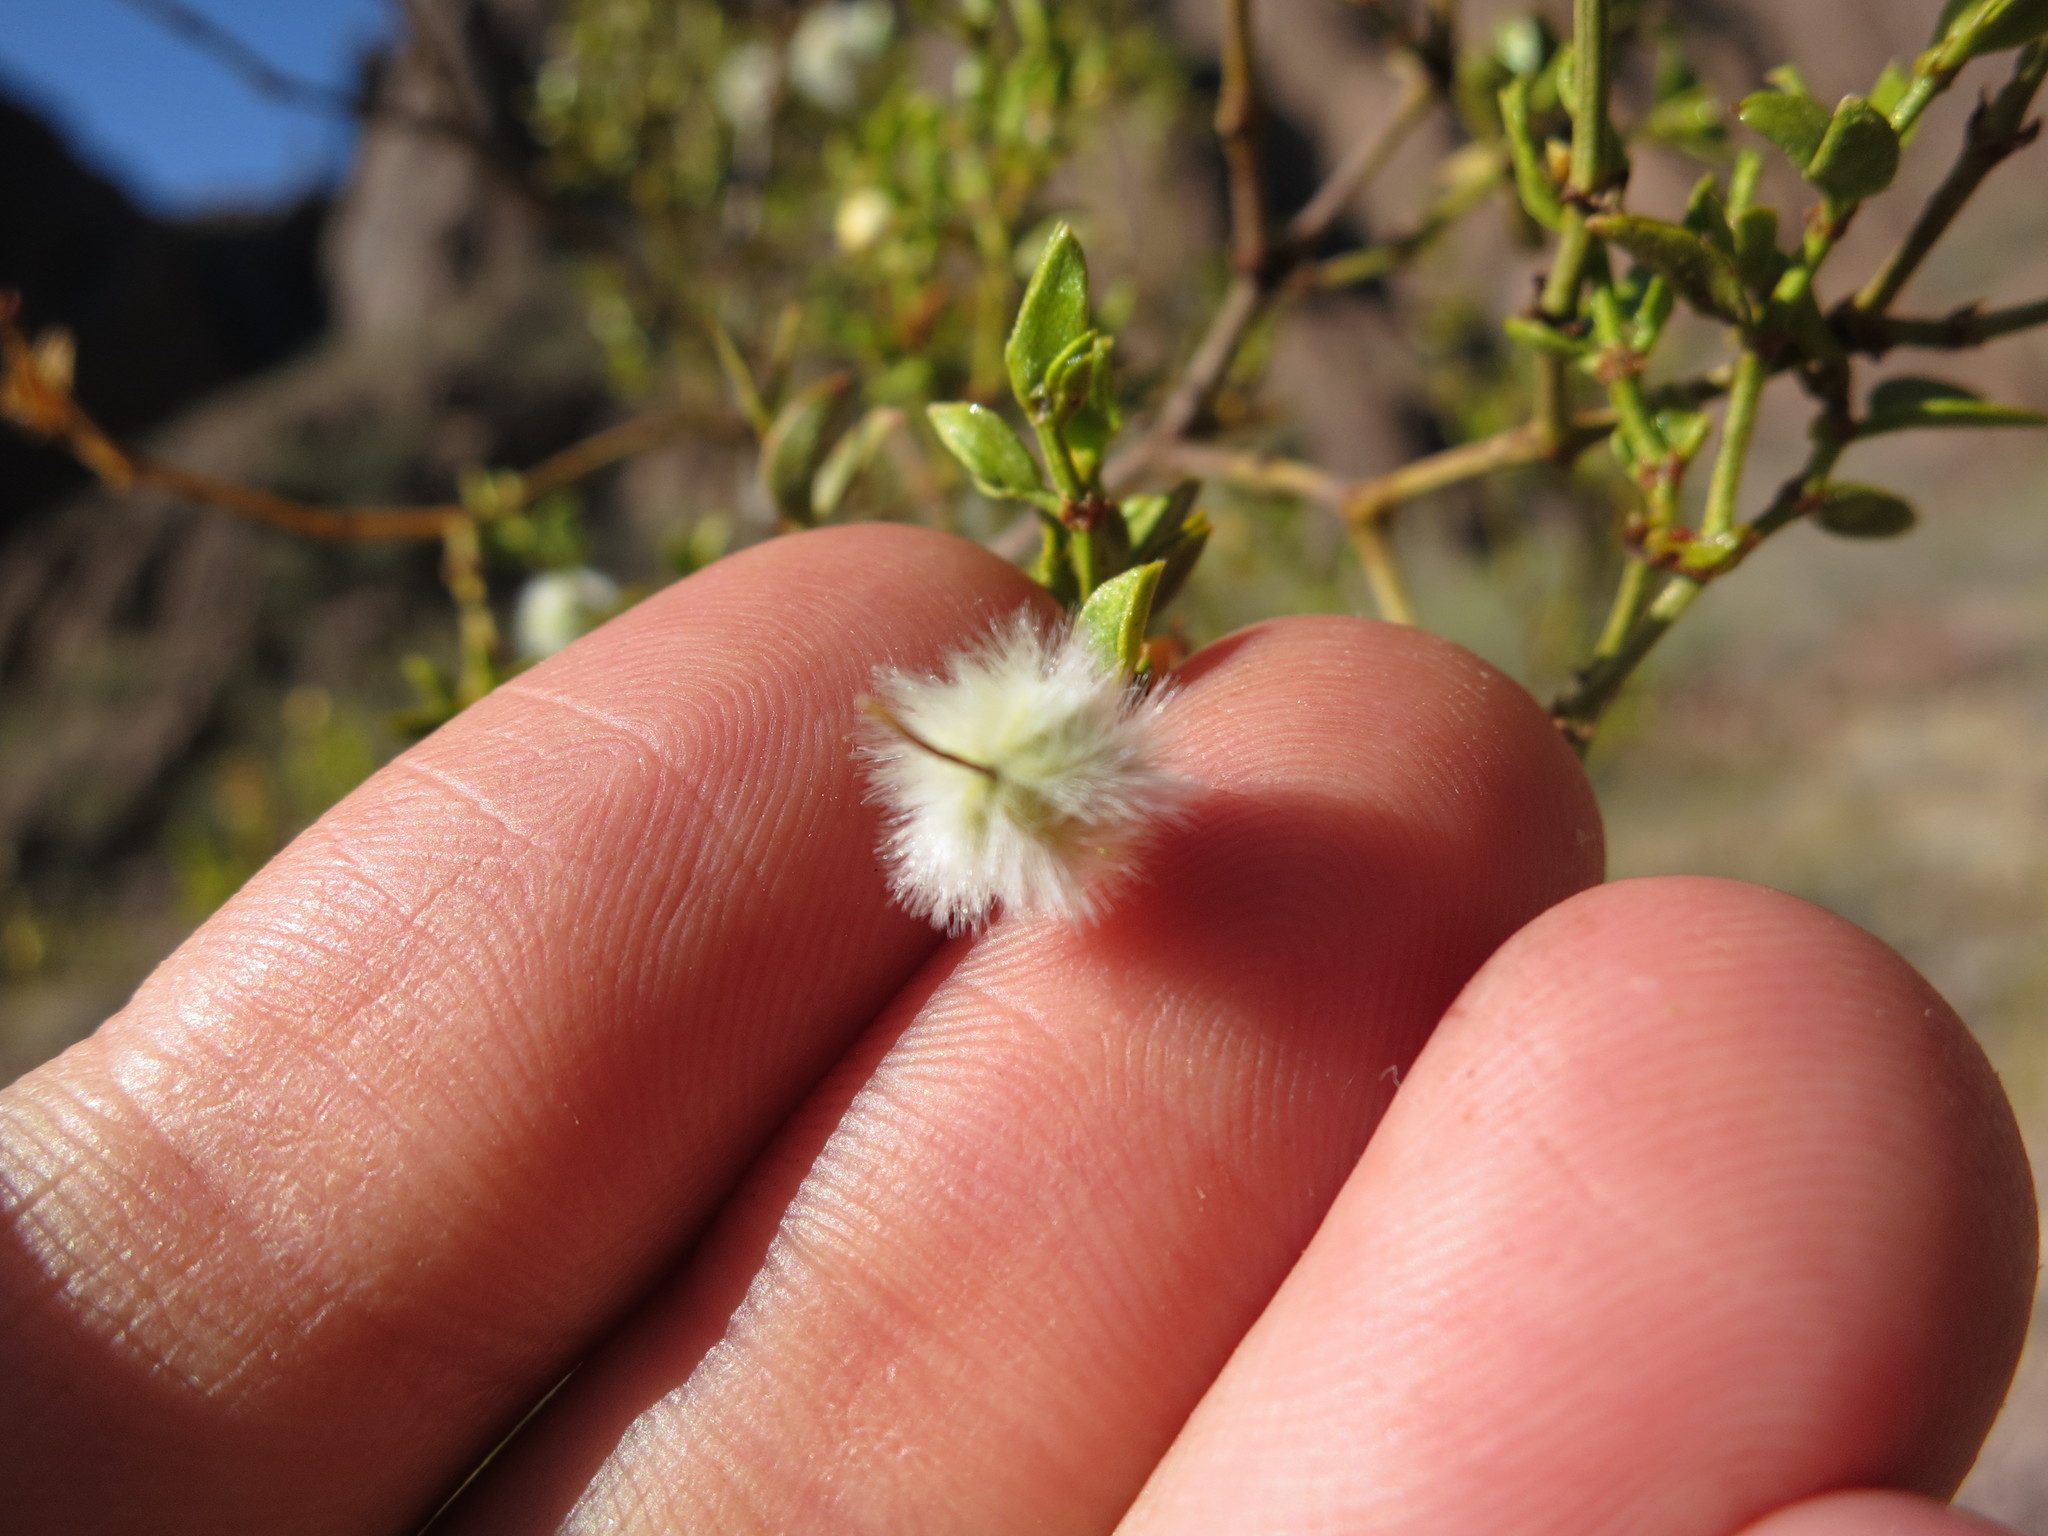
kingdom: Plantae
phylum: Tracheophyta
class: Magnoliopsida
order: Zygophyllales
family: Zygophyllaceae
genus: Larrea
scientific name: Larrea tridentata
